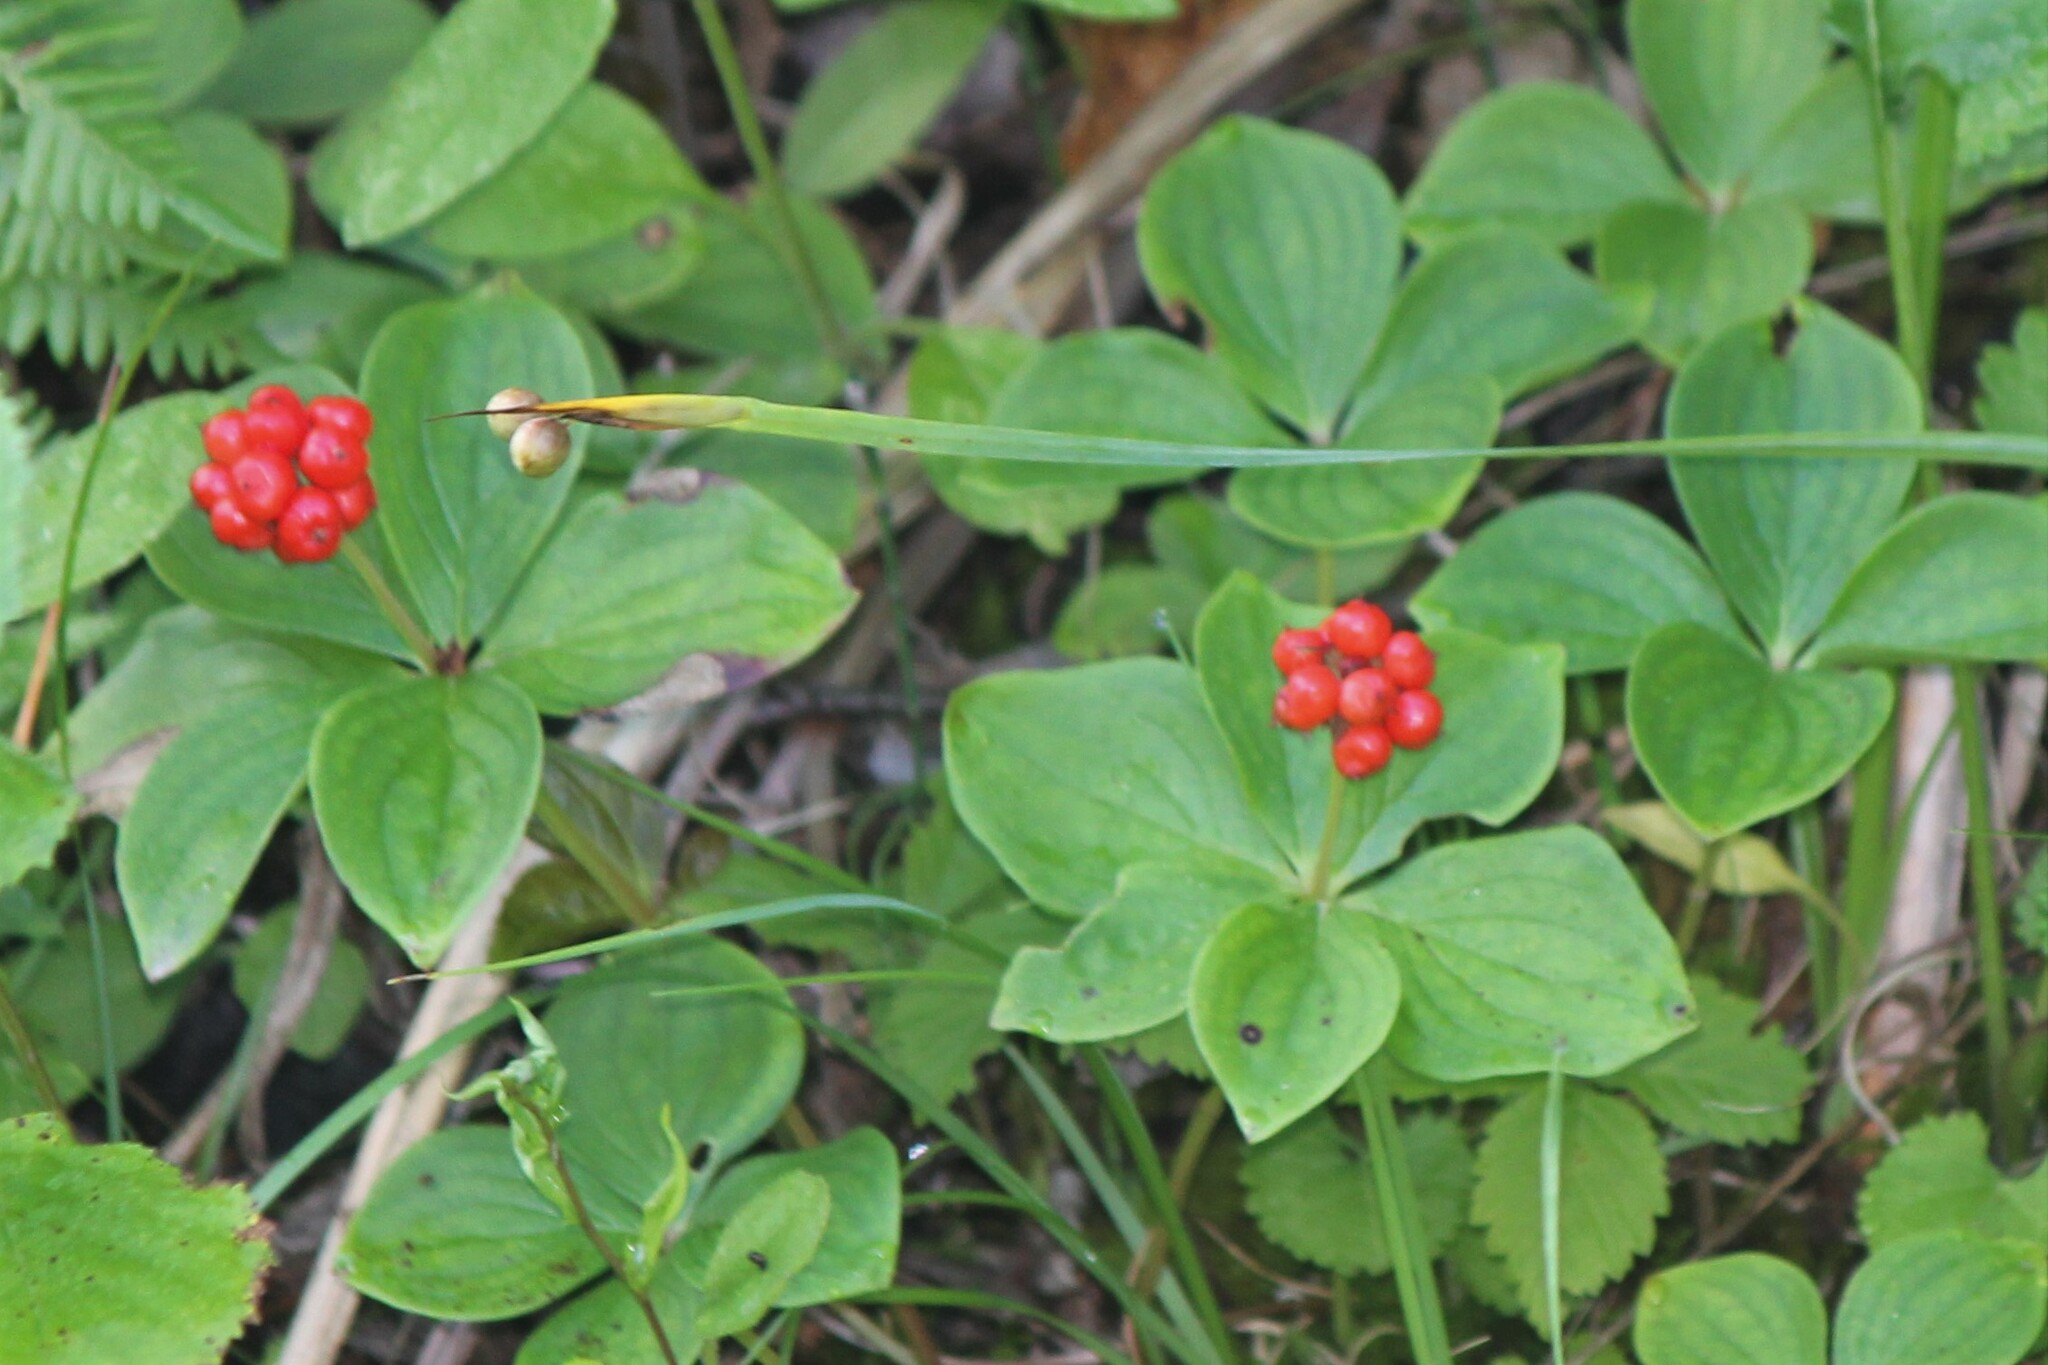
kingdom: Plantae
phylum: Tracheophyta
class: Magnoliopsida
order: Cornales
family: Cornaceae
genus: Cornus
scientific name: Cornus canadensis
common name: Creeping dogwood
